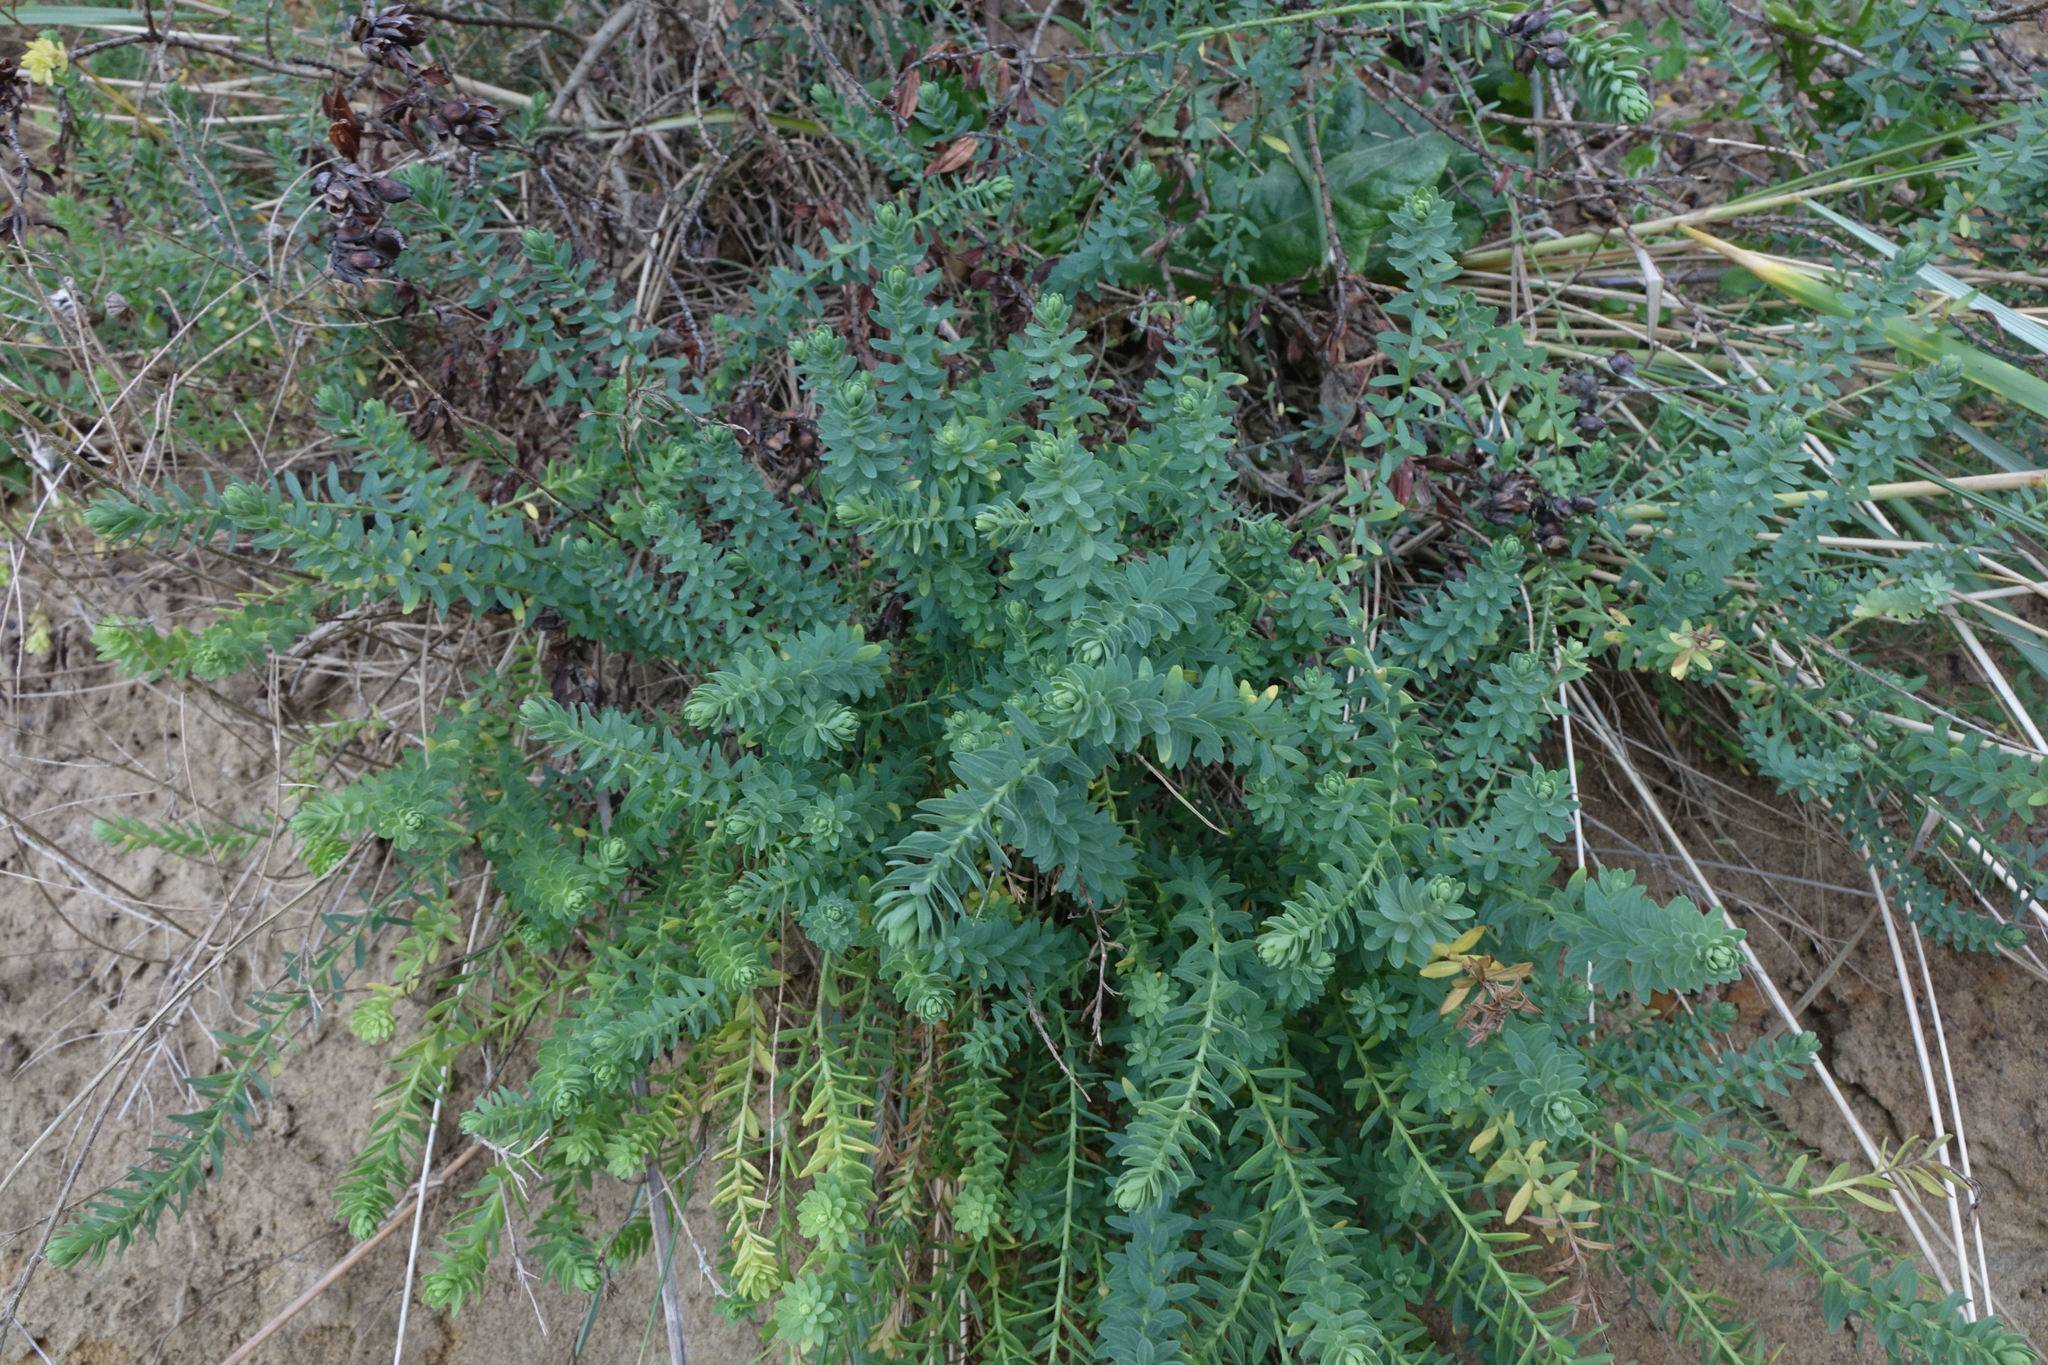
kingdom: Plantae
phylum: Tracheophyta
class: Magnoliopsida
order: Malpighiales
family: Linaceae
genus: Linum
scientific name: Linum monogynum
